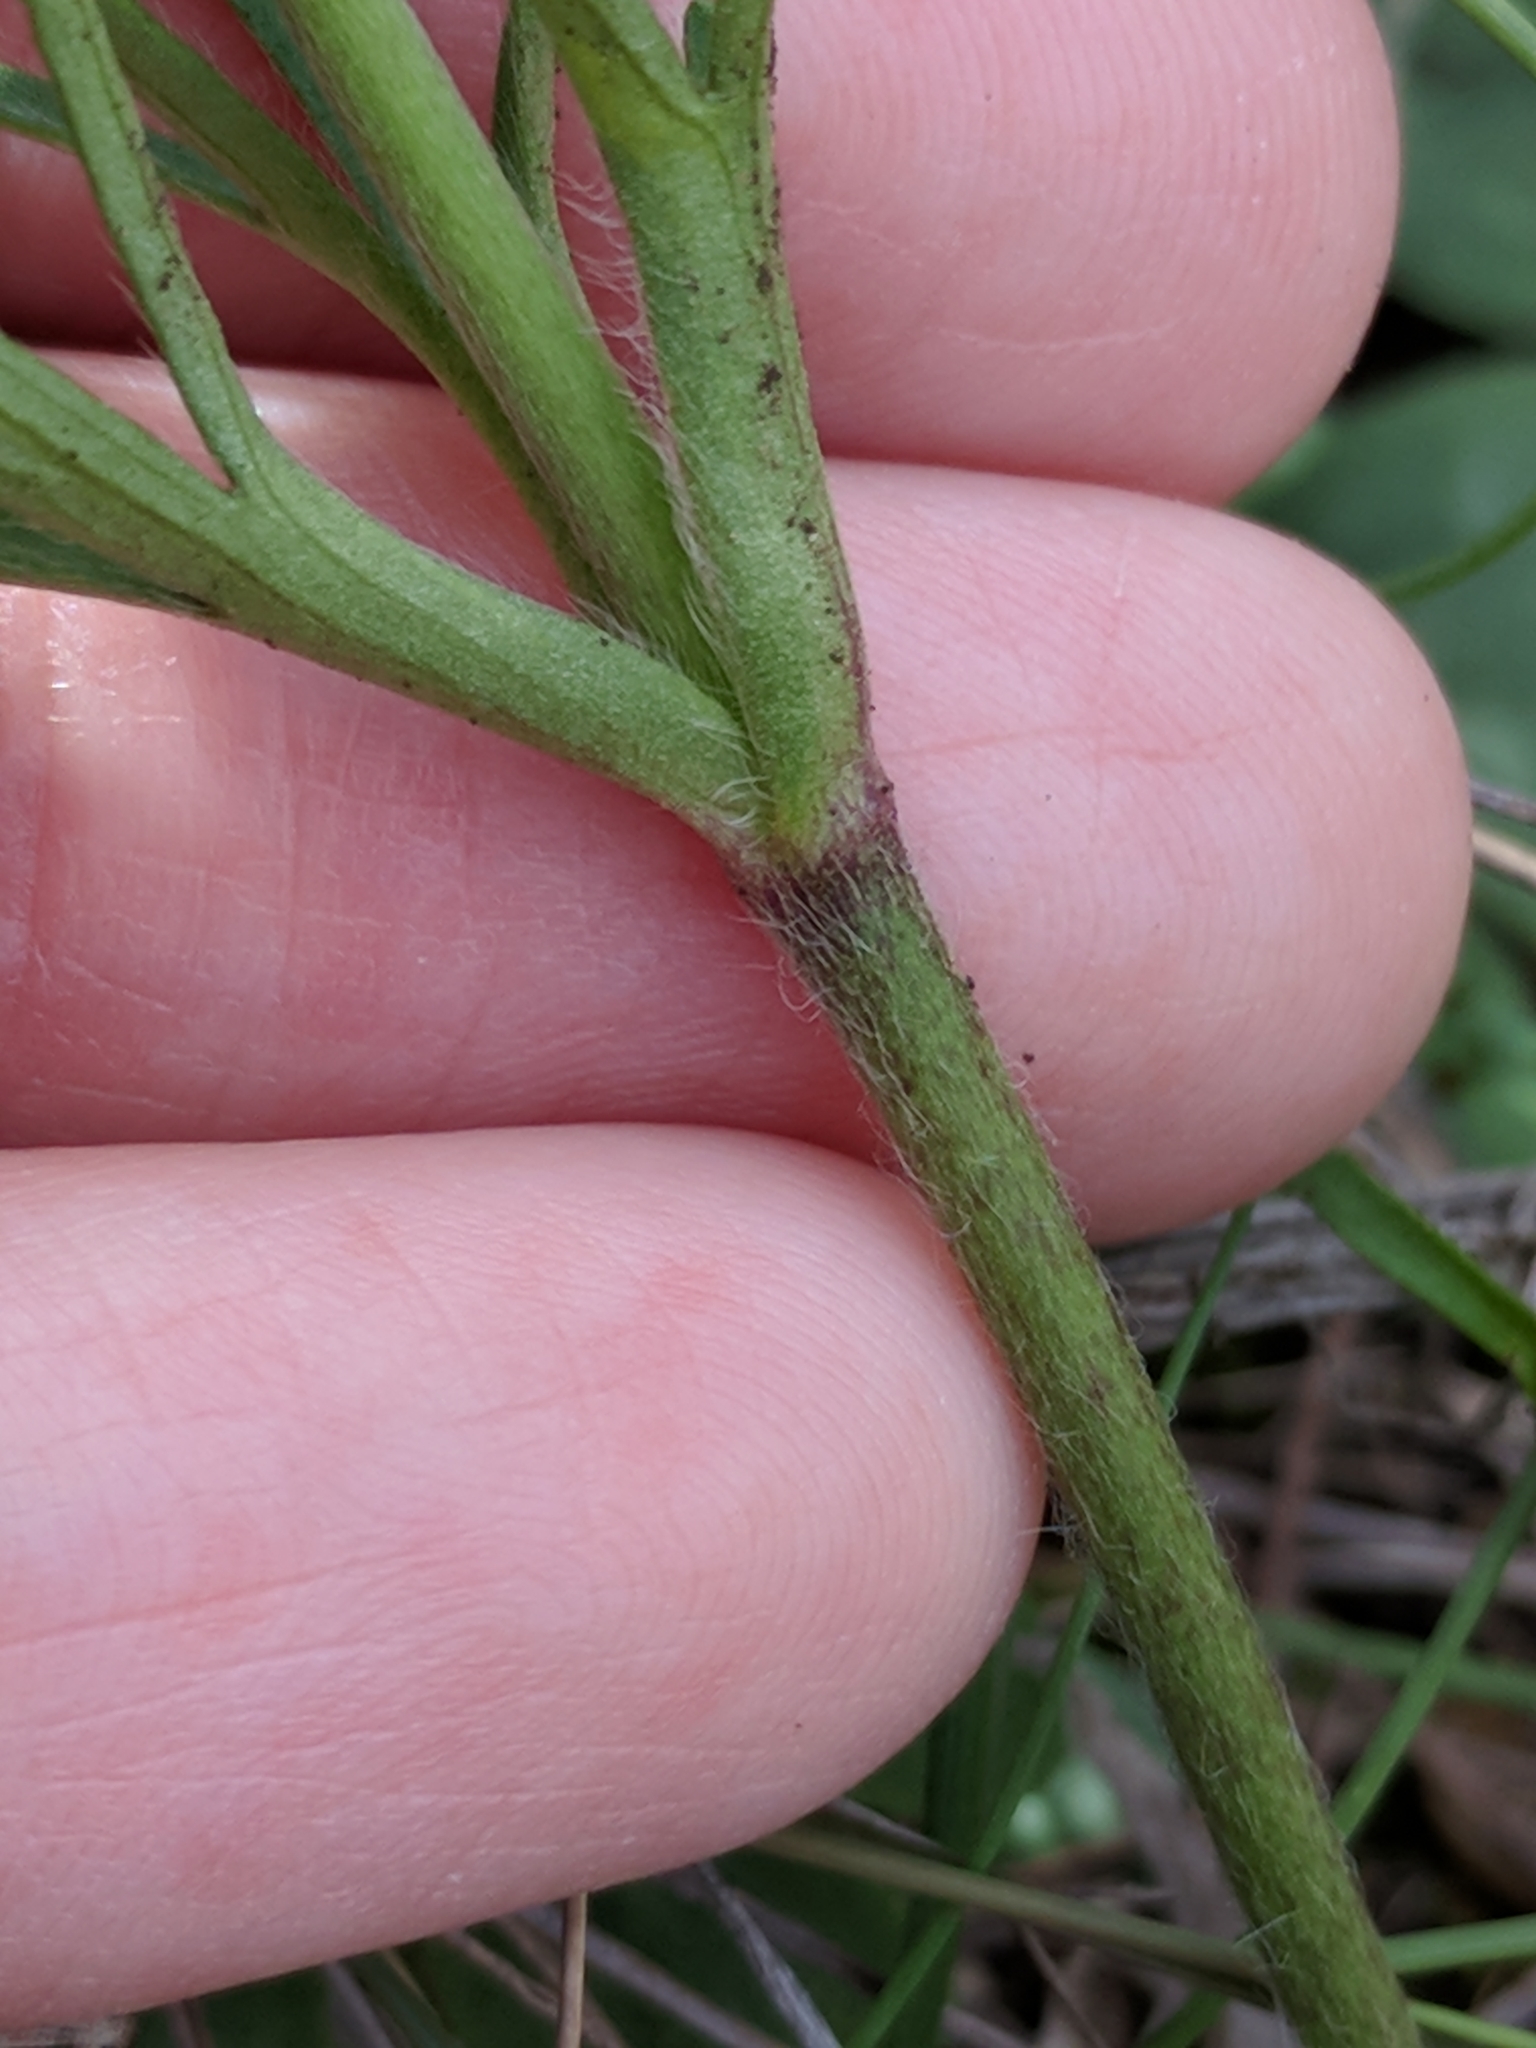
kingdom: Plantae
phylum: Tracheophyta
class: Magnoliopsida
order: Ranunculales
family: Ranunculaceae
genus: Anemone
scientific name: Anemone berlandieri
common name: Ten-petal anemone
